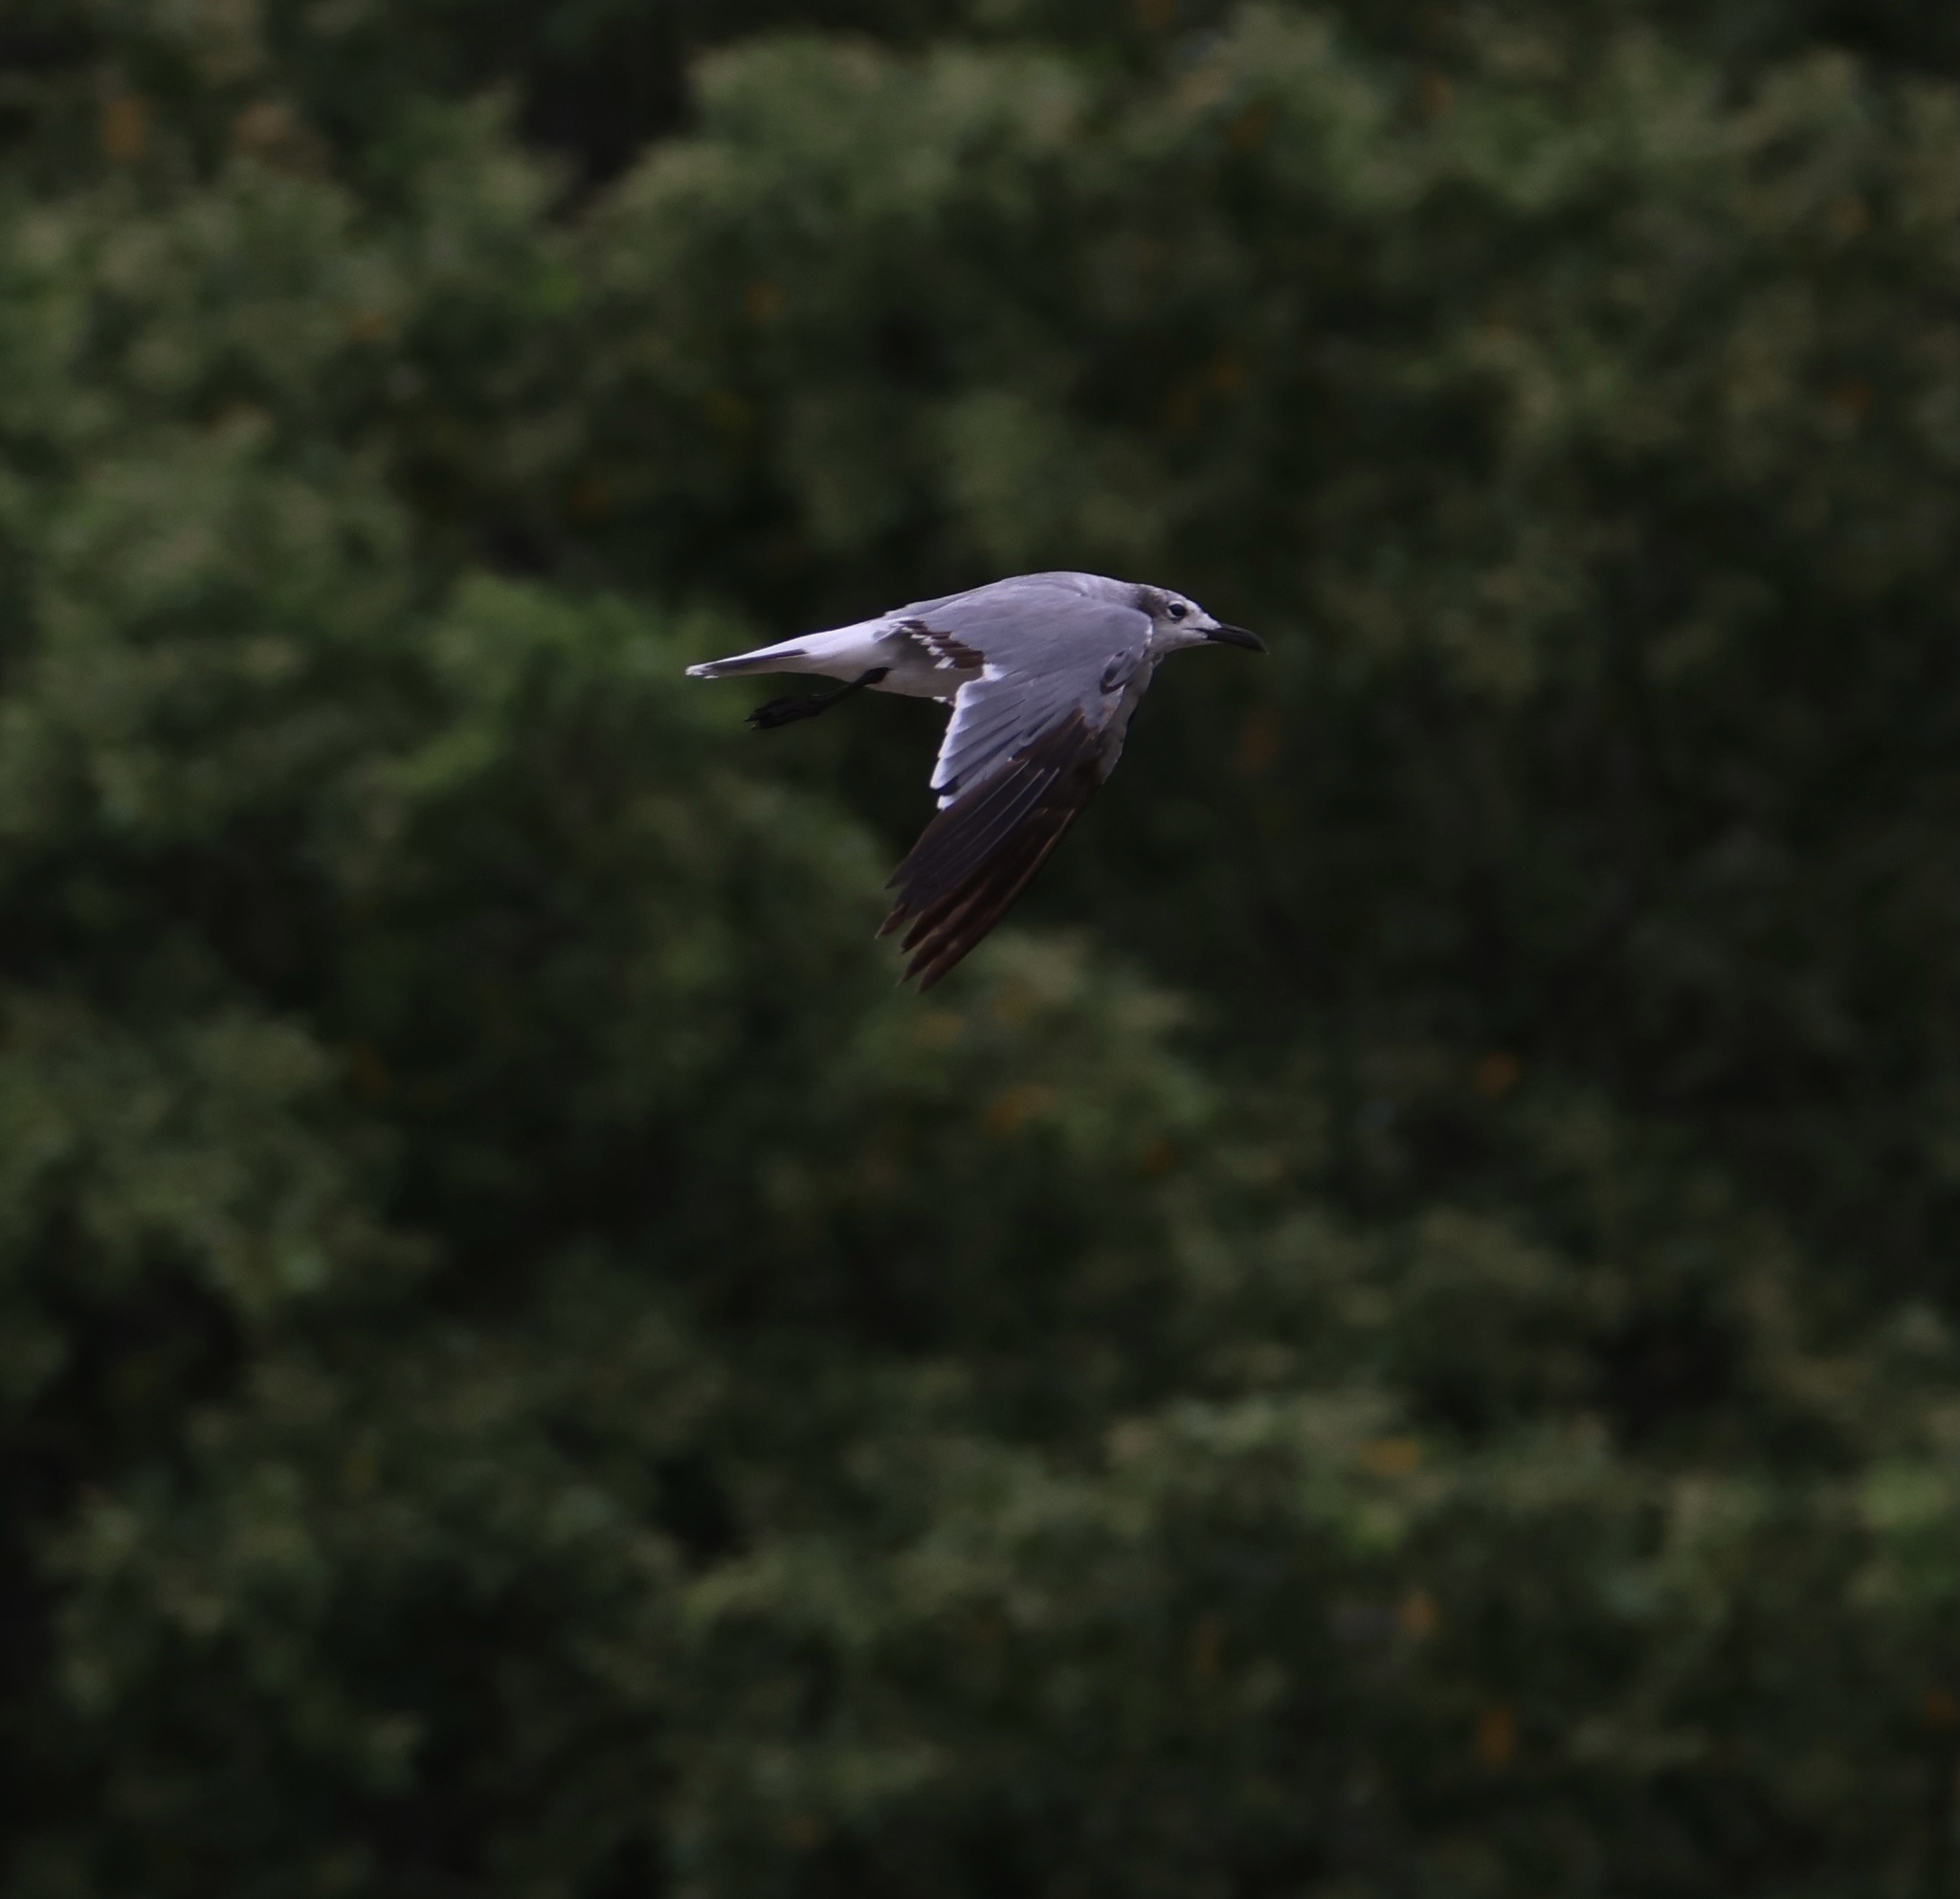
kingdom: Animalia
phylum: Chordata
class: Aves
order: Charadriiformes
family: Laridae
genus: Leucophaeus
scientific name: Leucophaeus atricilla
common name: Laughing gull
